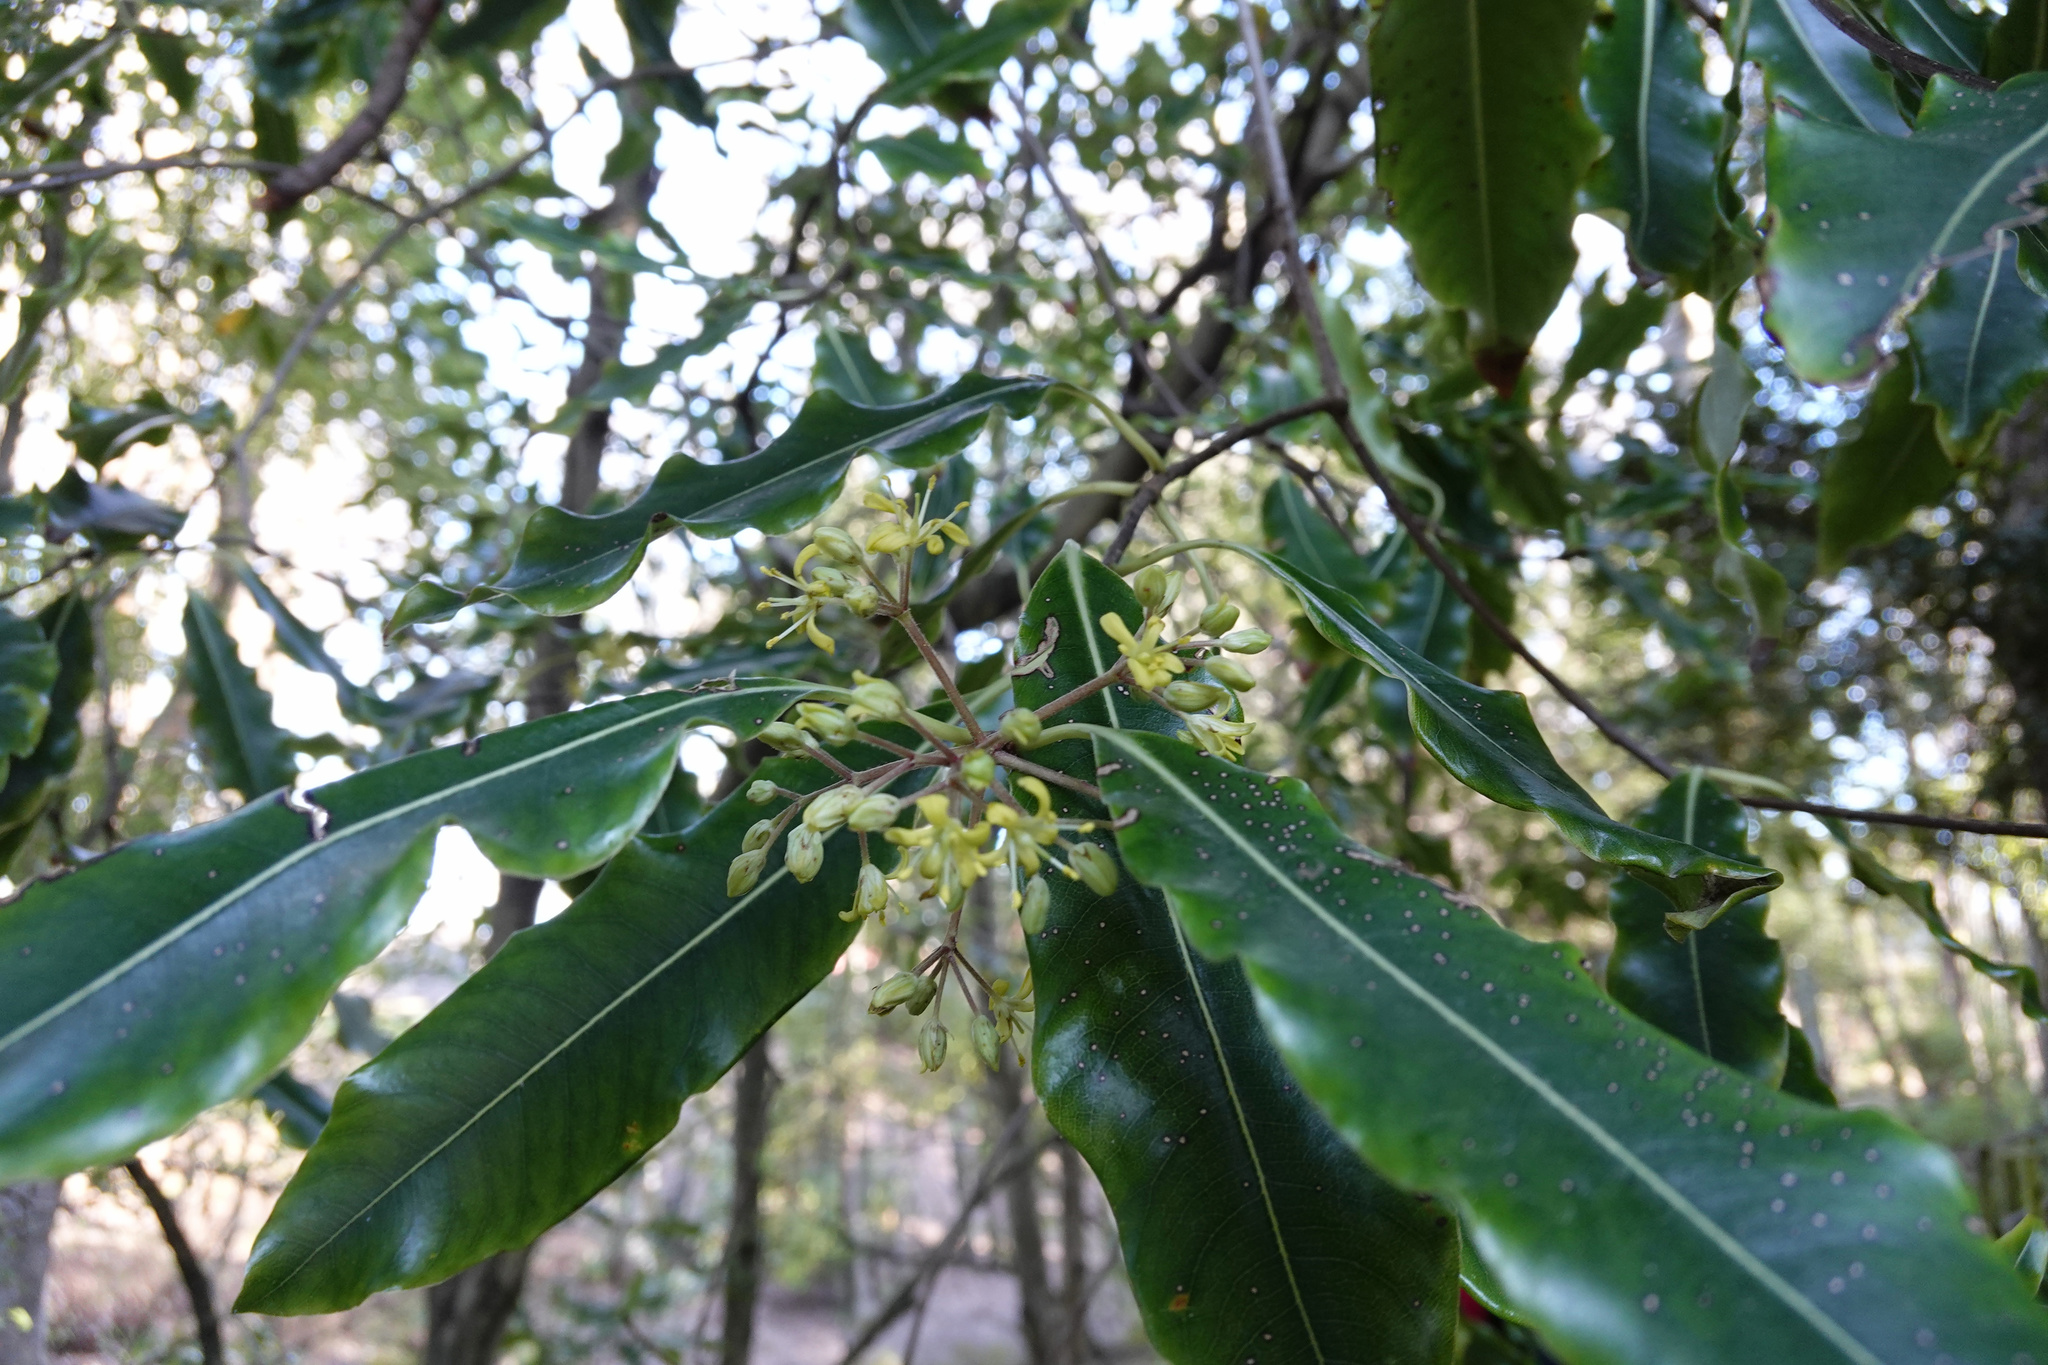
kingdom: Plantae
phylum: Tracheophyta
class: Magnoliopsida
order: Apiales
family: Pittosporaceae
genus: Pittosporum
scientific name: Pittosporum eugenioides
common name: Lemonwood
